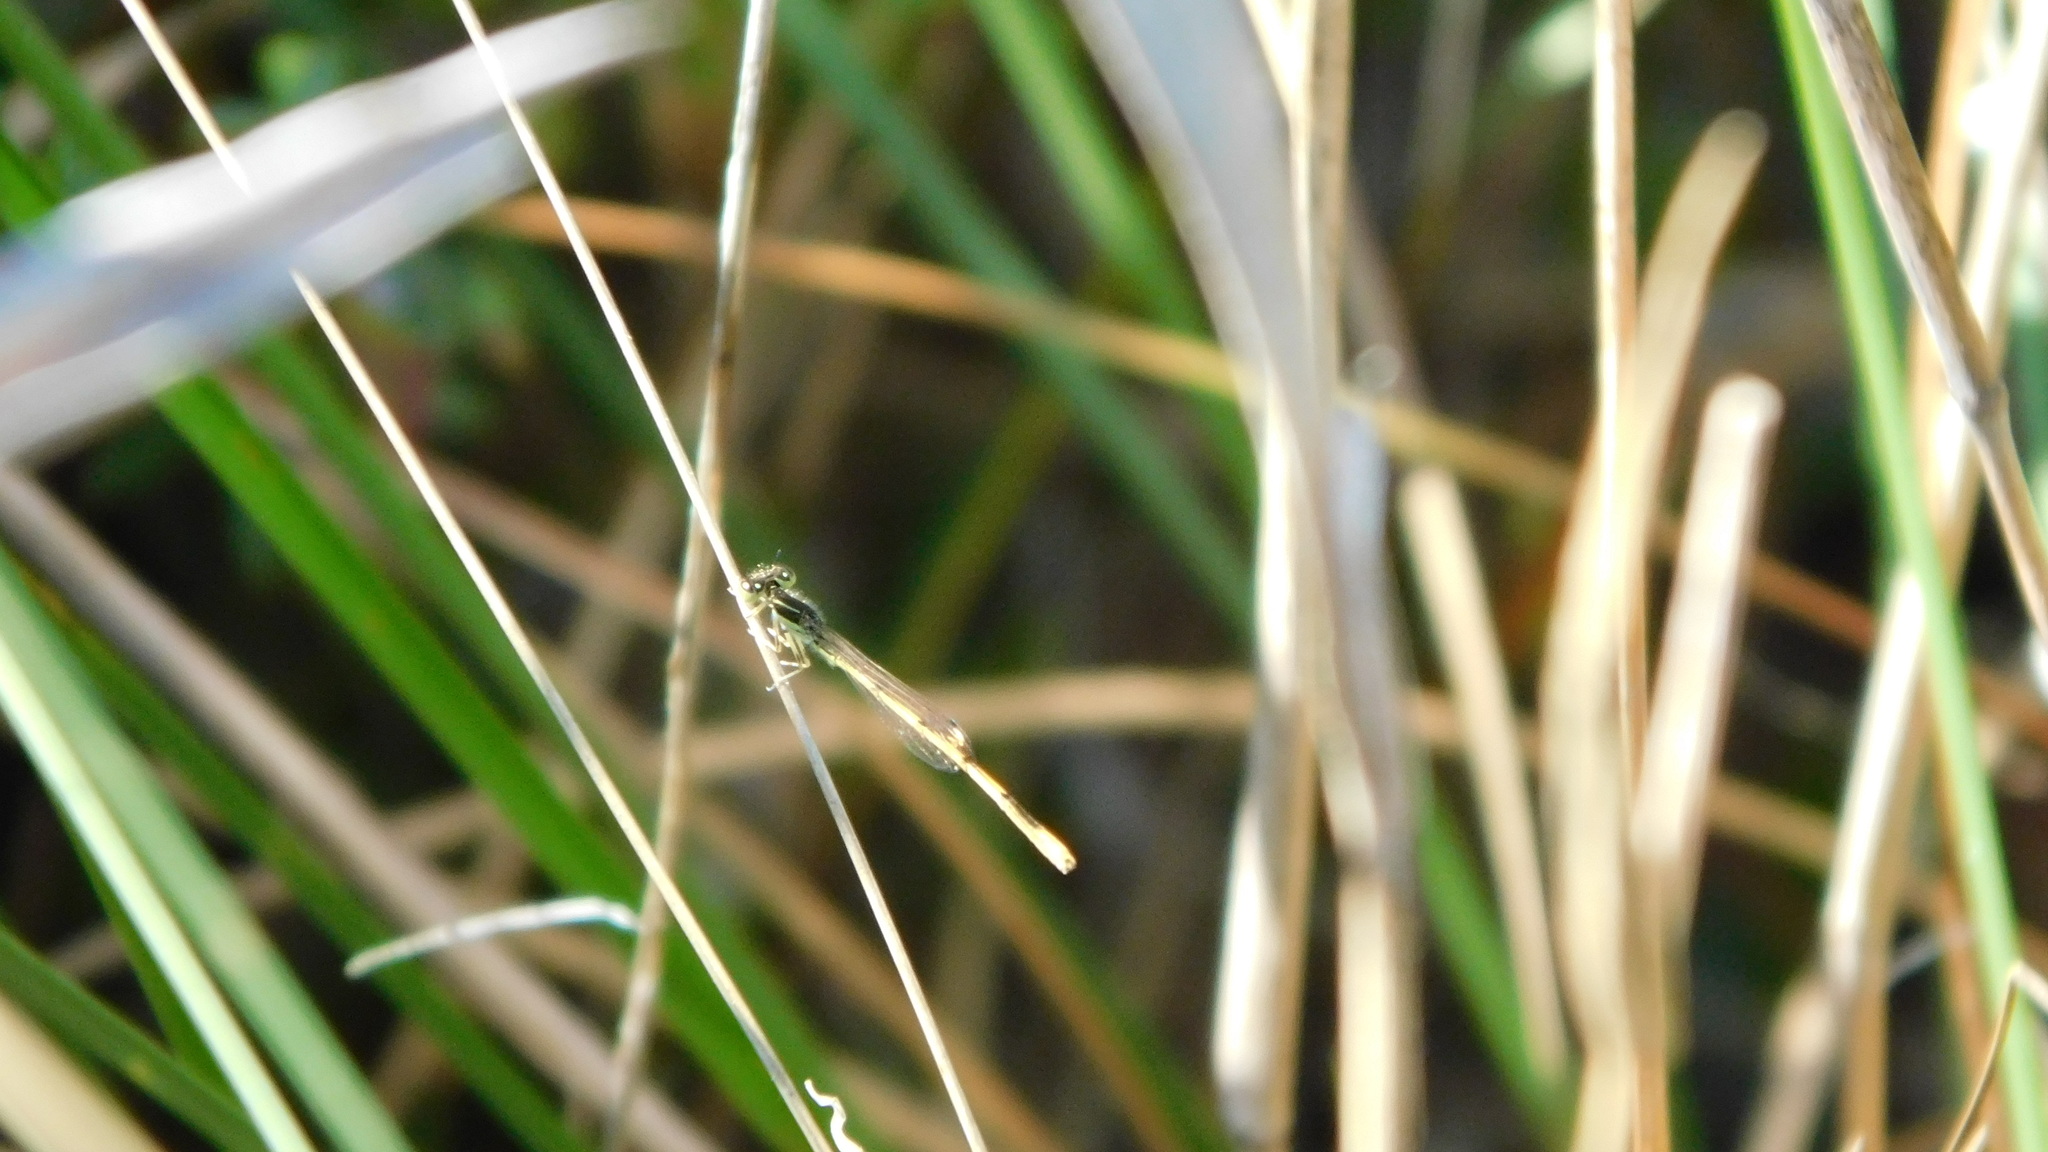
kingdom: Animalia
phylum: Arthropoda
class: Insecta
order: Odonata
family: Coenagrionidae
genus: Ischnura
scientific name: Ischnura hastata
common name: Citrine forktail
